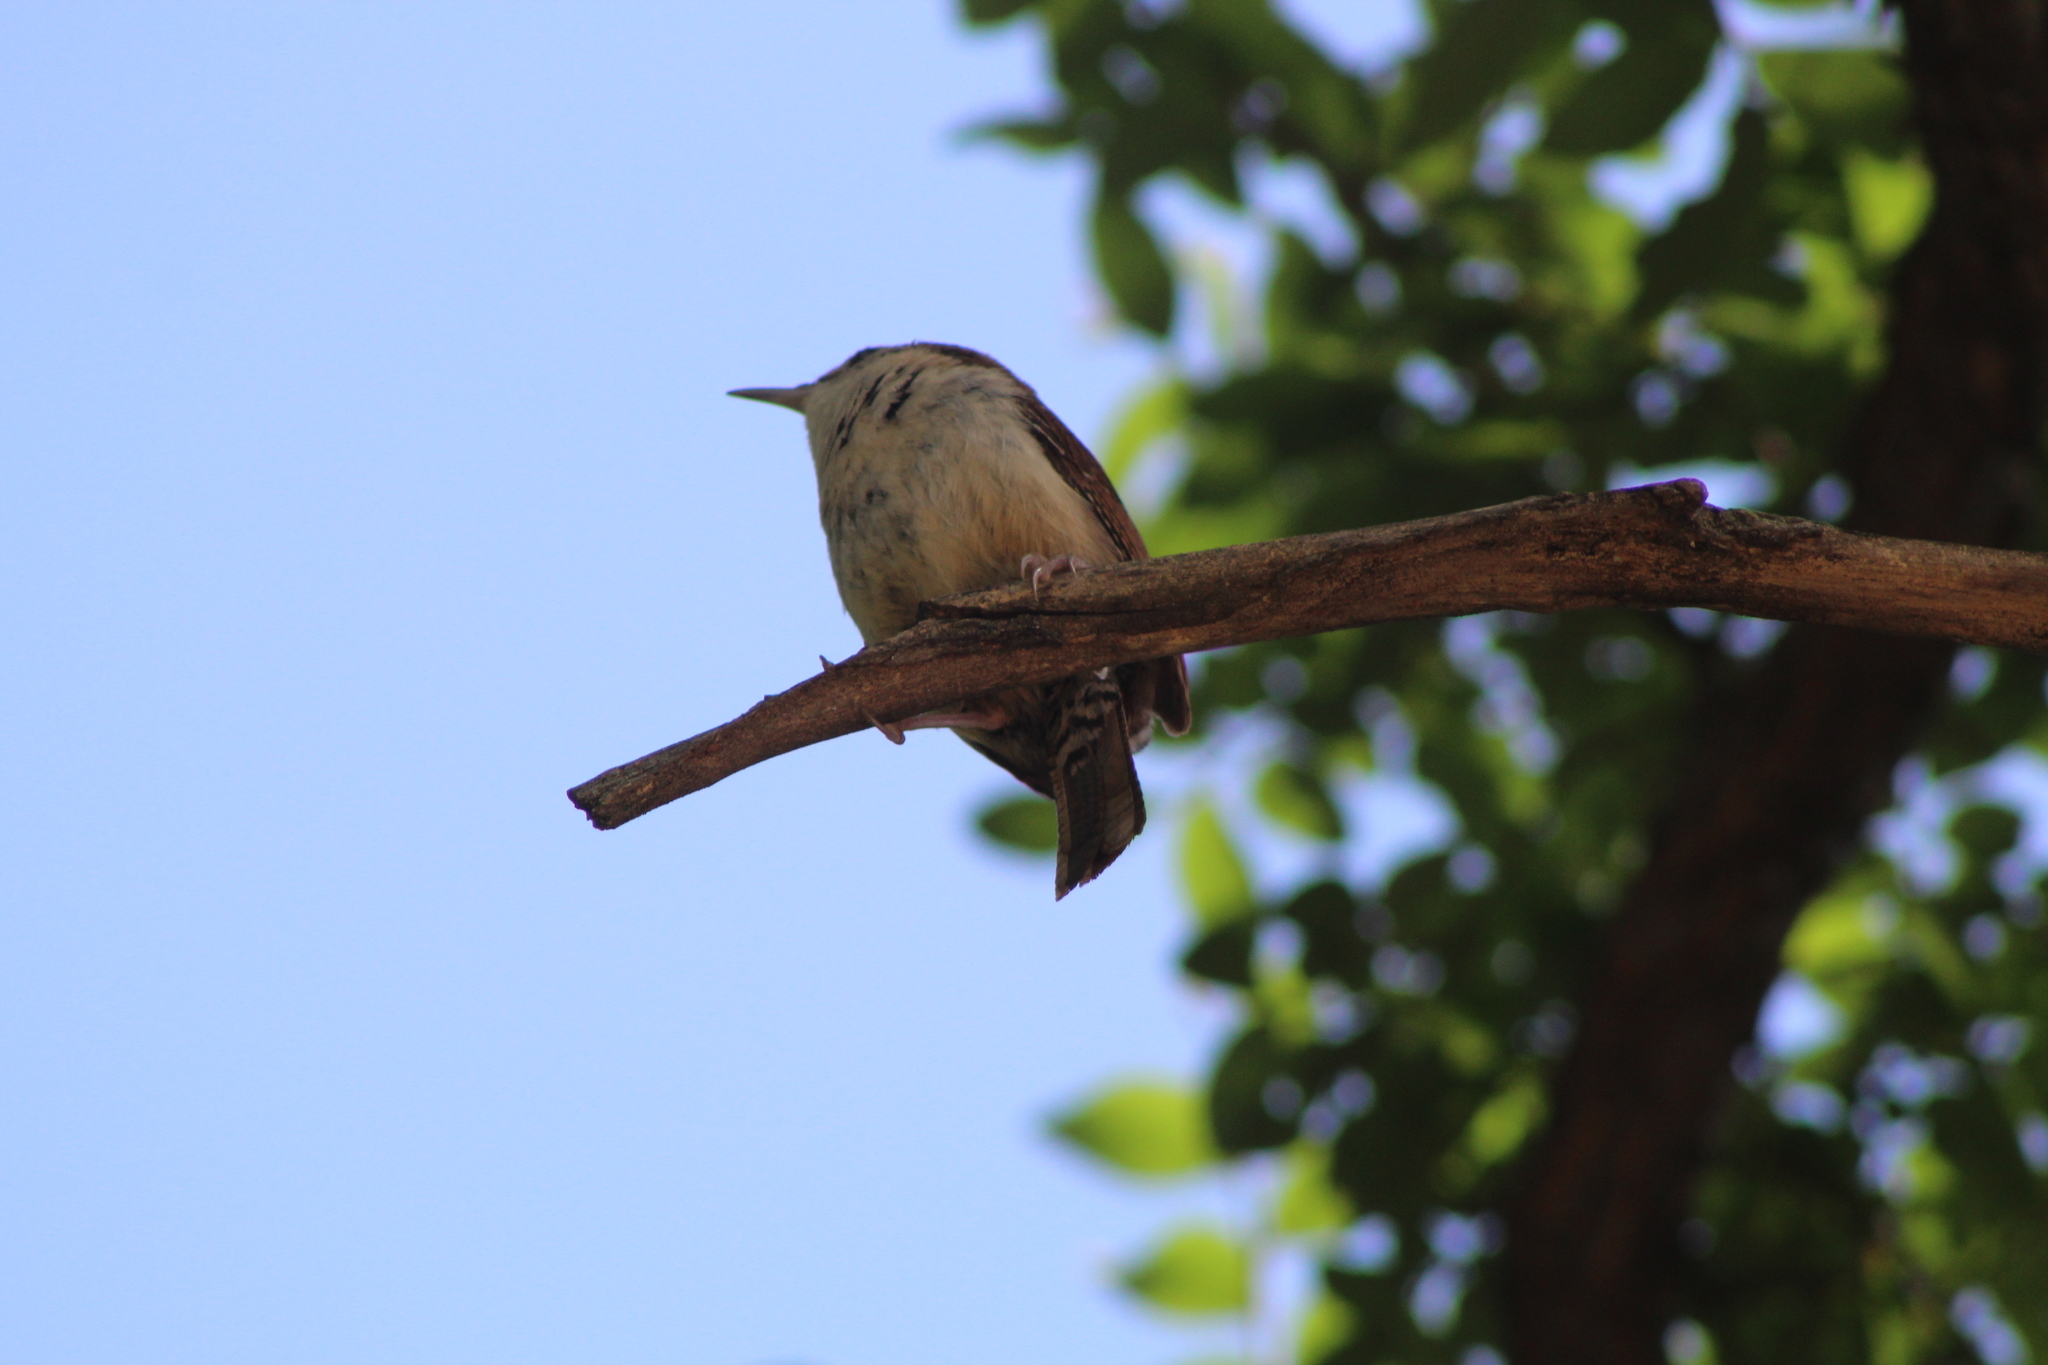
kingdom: Animalia
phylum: Chordata
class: Aves
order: Passeriformes
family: Troglodytidae
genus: Thryothorus
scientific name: Thryothorus ludovicianus
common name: Carolina wren
